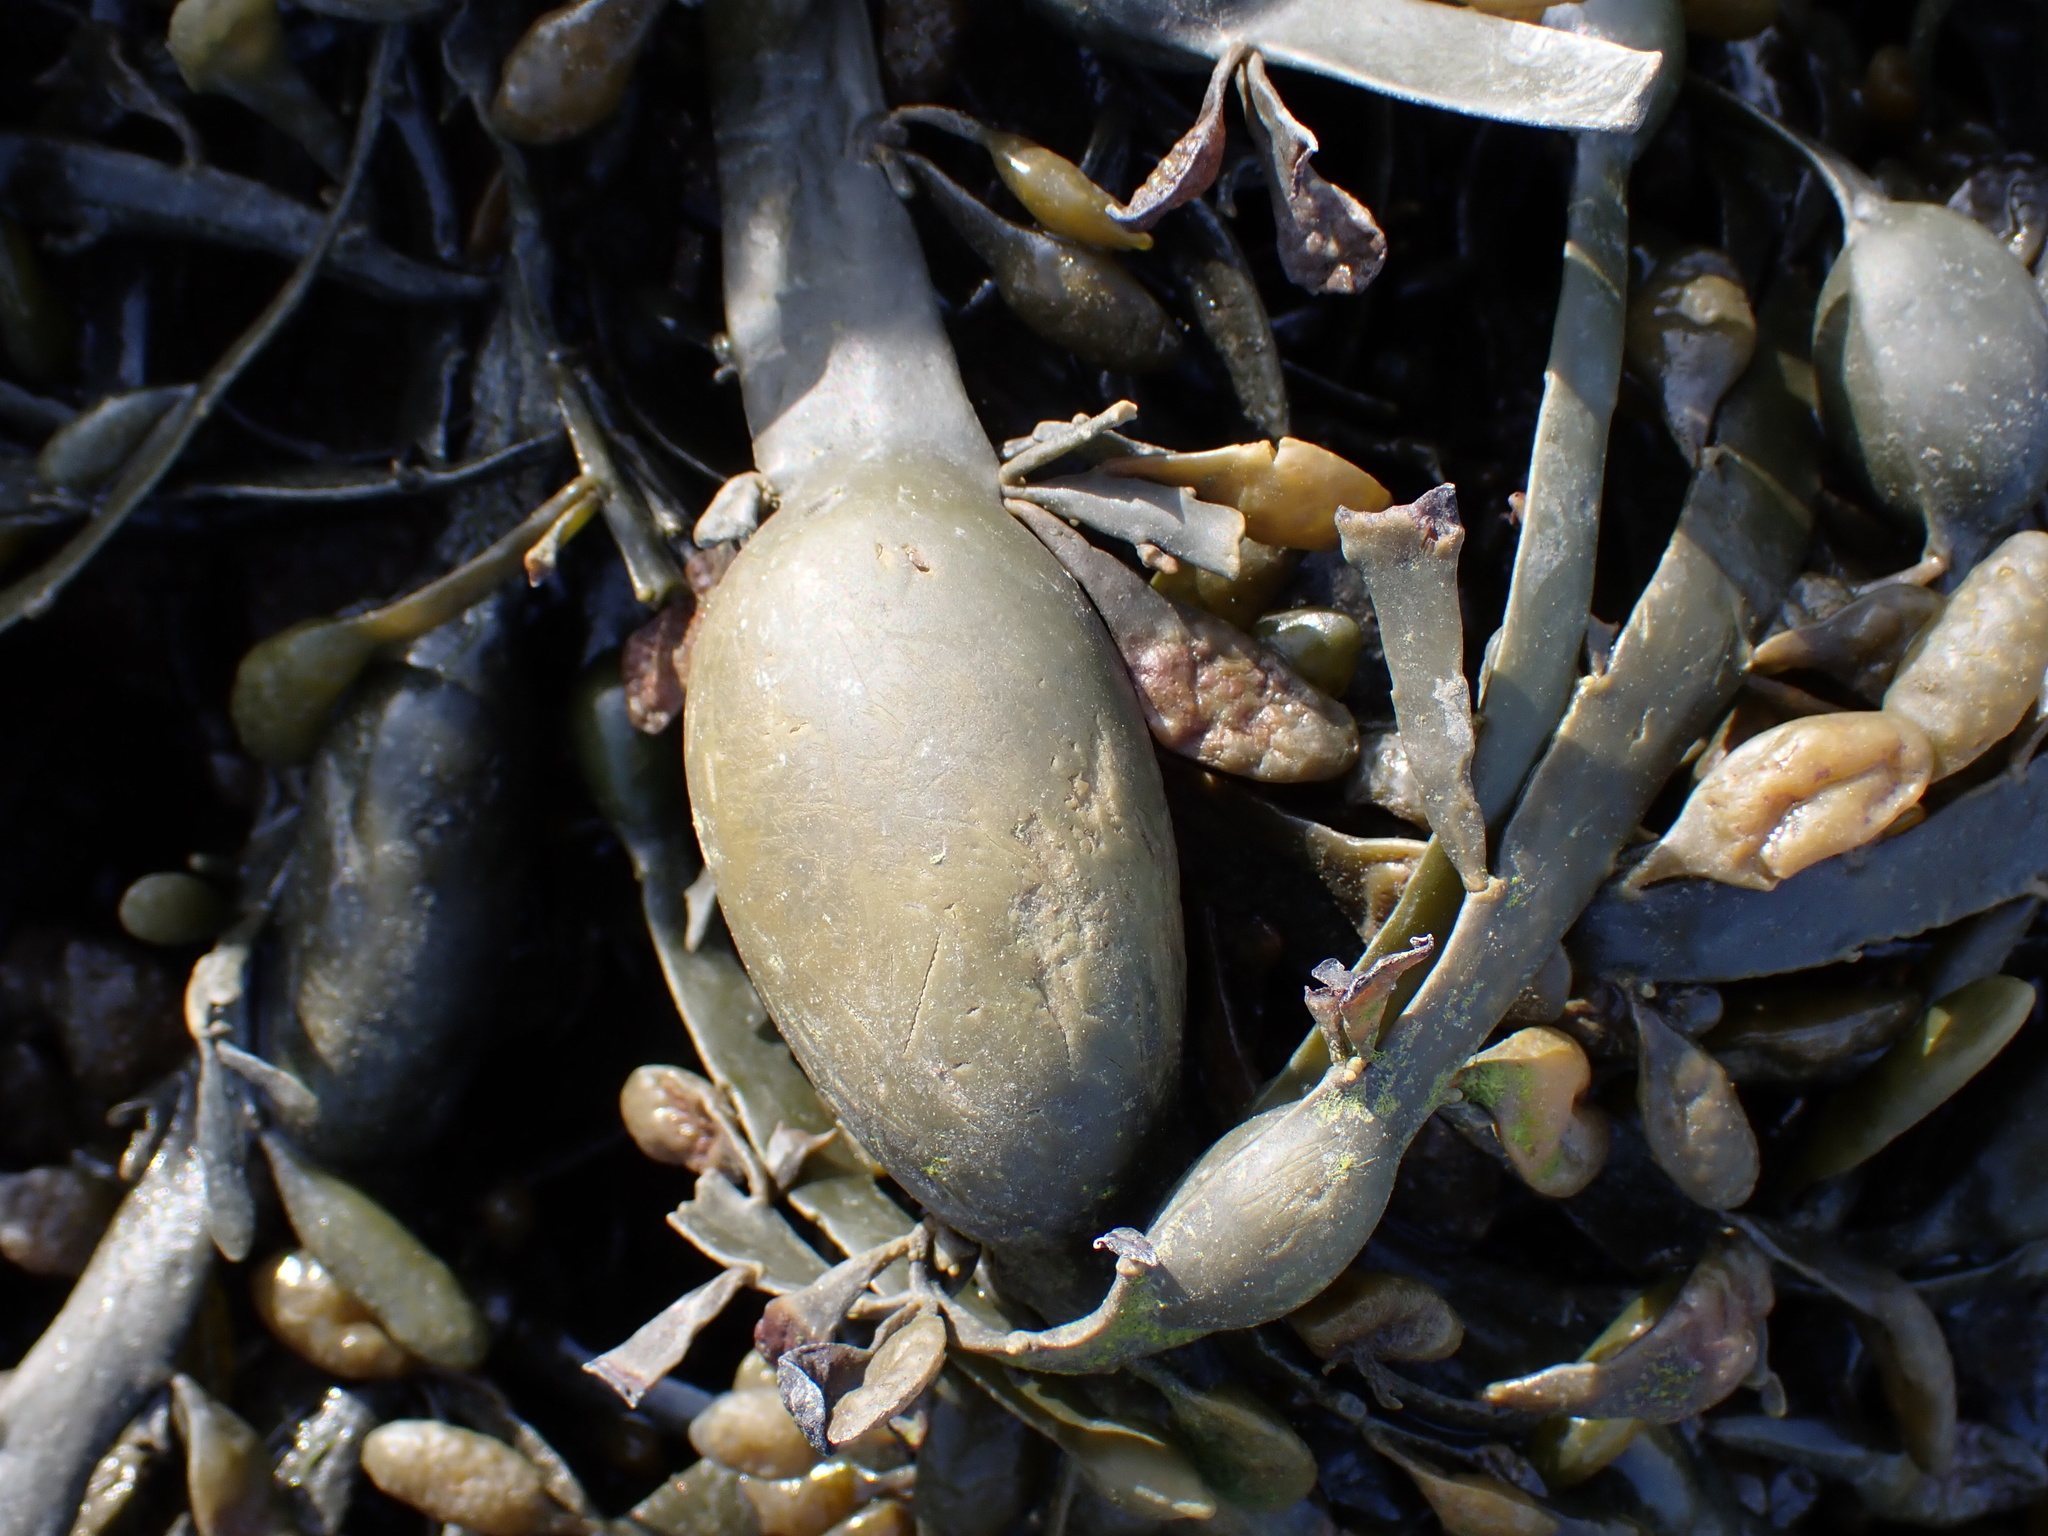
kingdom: Chromista
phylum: Ochrophyta
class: Phaeophyceae
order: Fucales
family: Fucaceae
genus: Ascophyllum
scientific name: Ascophyllum nodosum
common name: Knotted wrack
